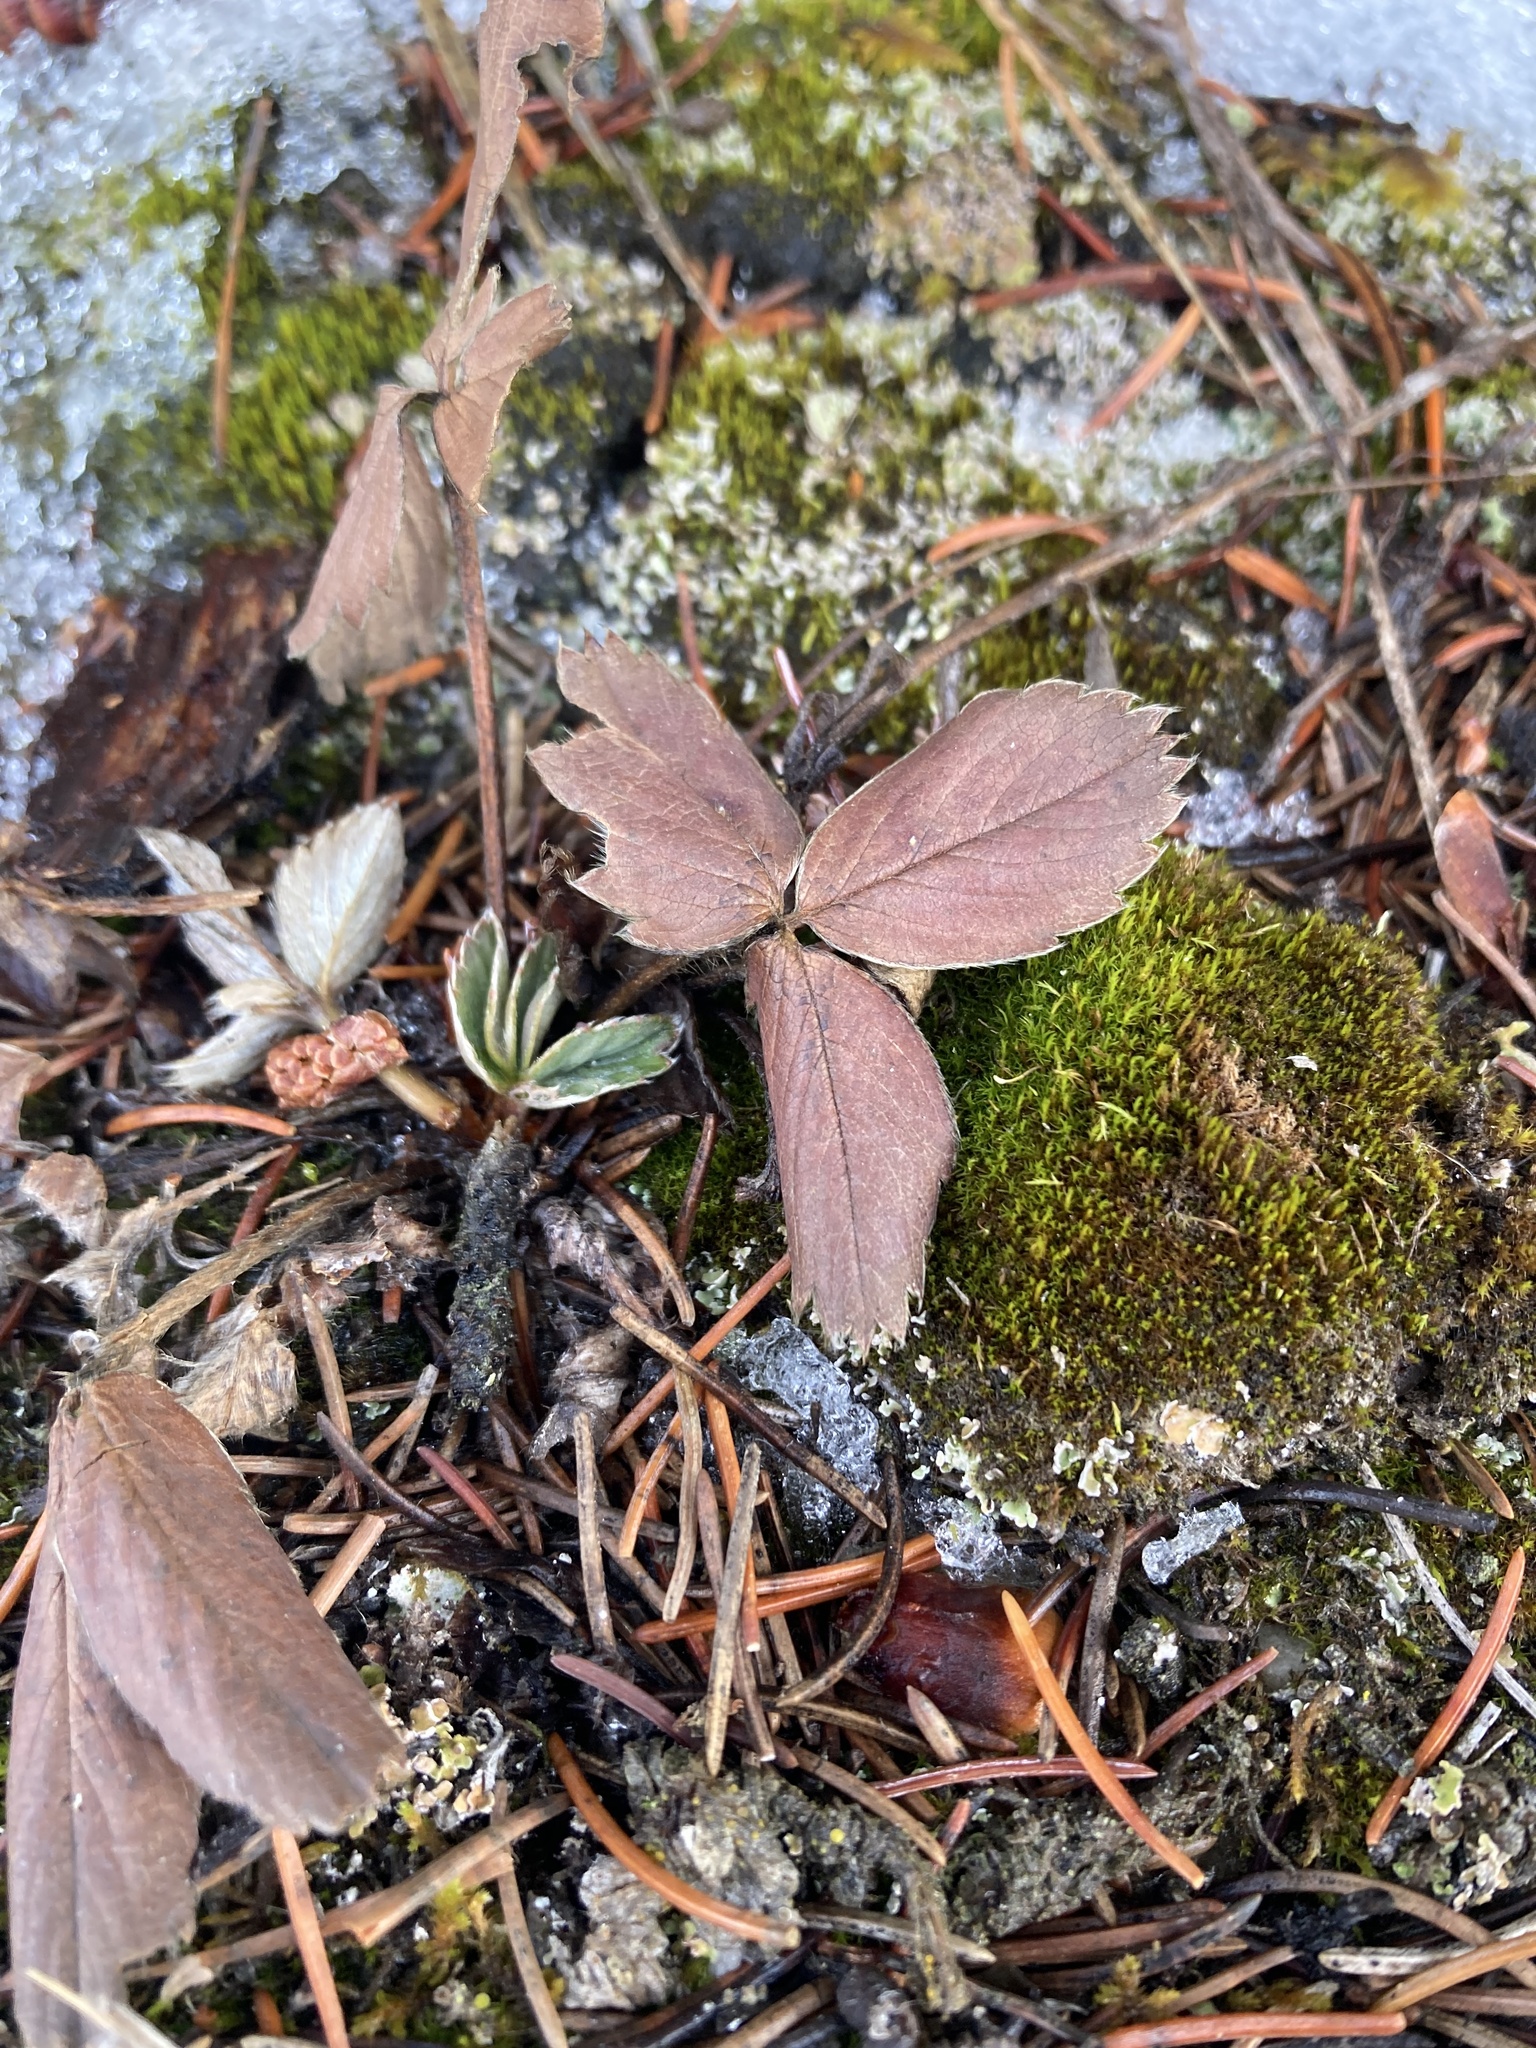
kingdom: Plantae
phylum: Tracheophyta
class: Magnoliopsida
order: Rosales
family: Rosaceae
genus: Fragaria
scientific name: Fragaria virginiana
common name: Thickleaved wild strawberry
